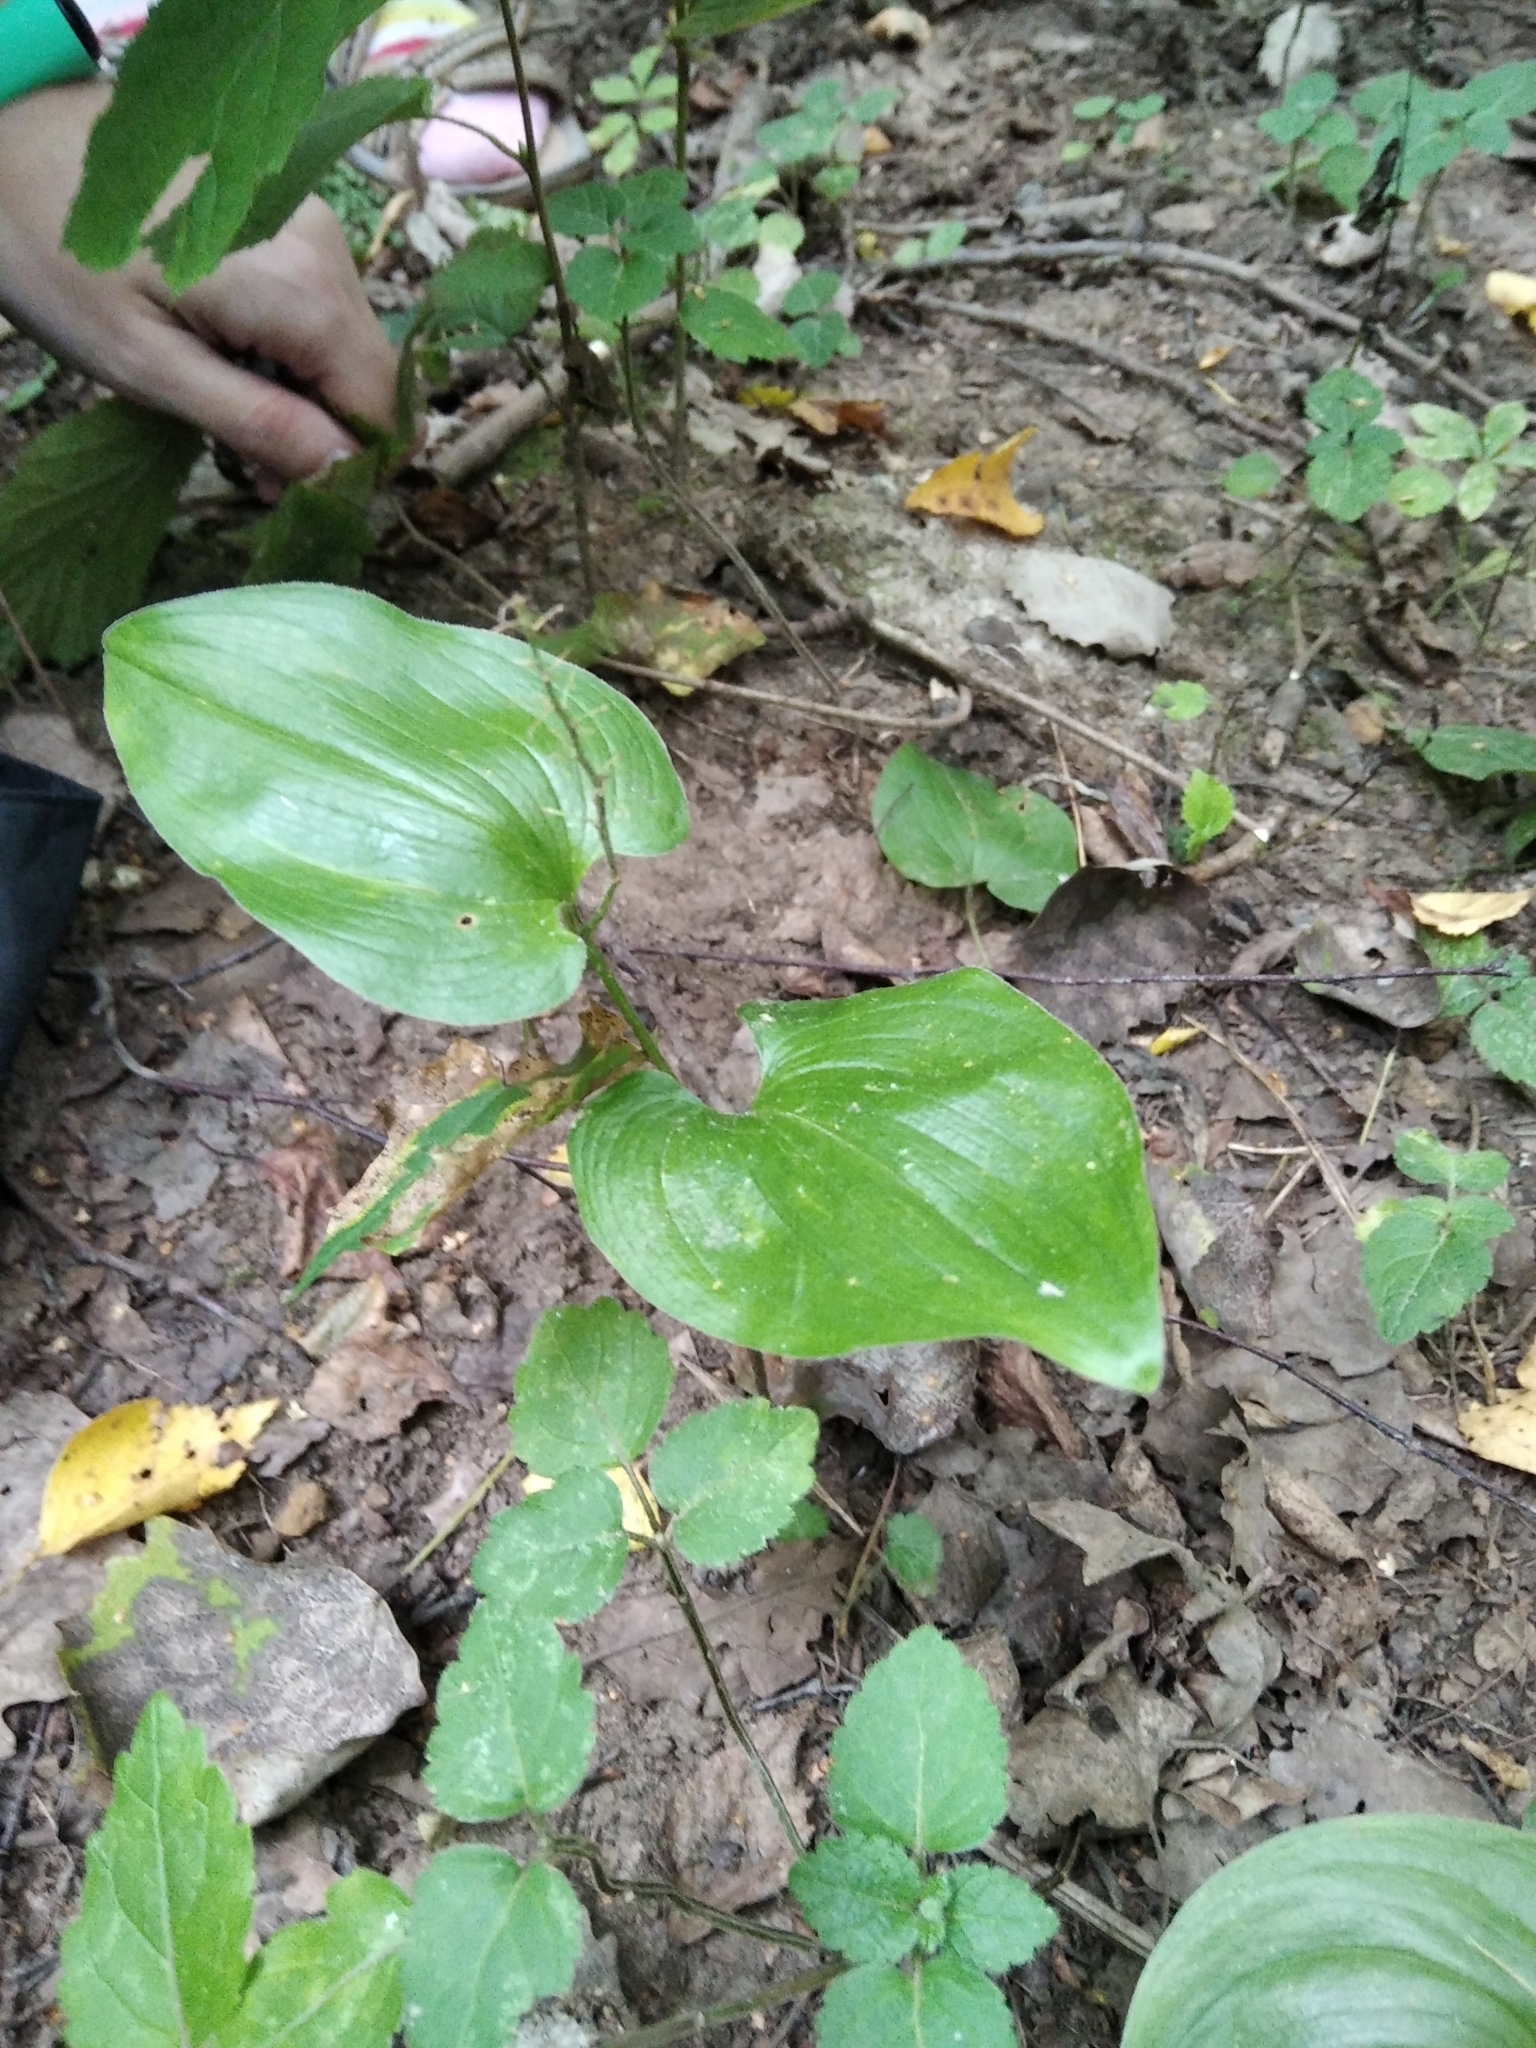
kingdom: Plantae
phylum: Tracheophyta
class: Liliopsida
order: Asparagales
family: Asparagaceae
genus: Maianthemum
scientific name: Maianthemum bifolium
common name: May lily
